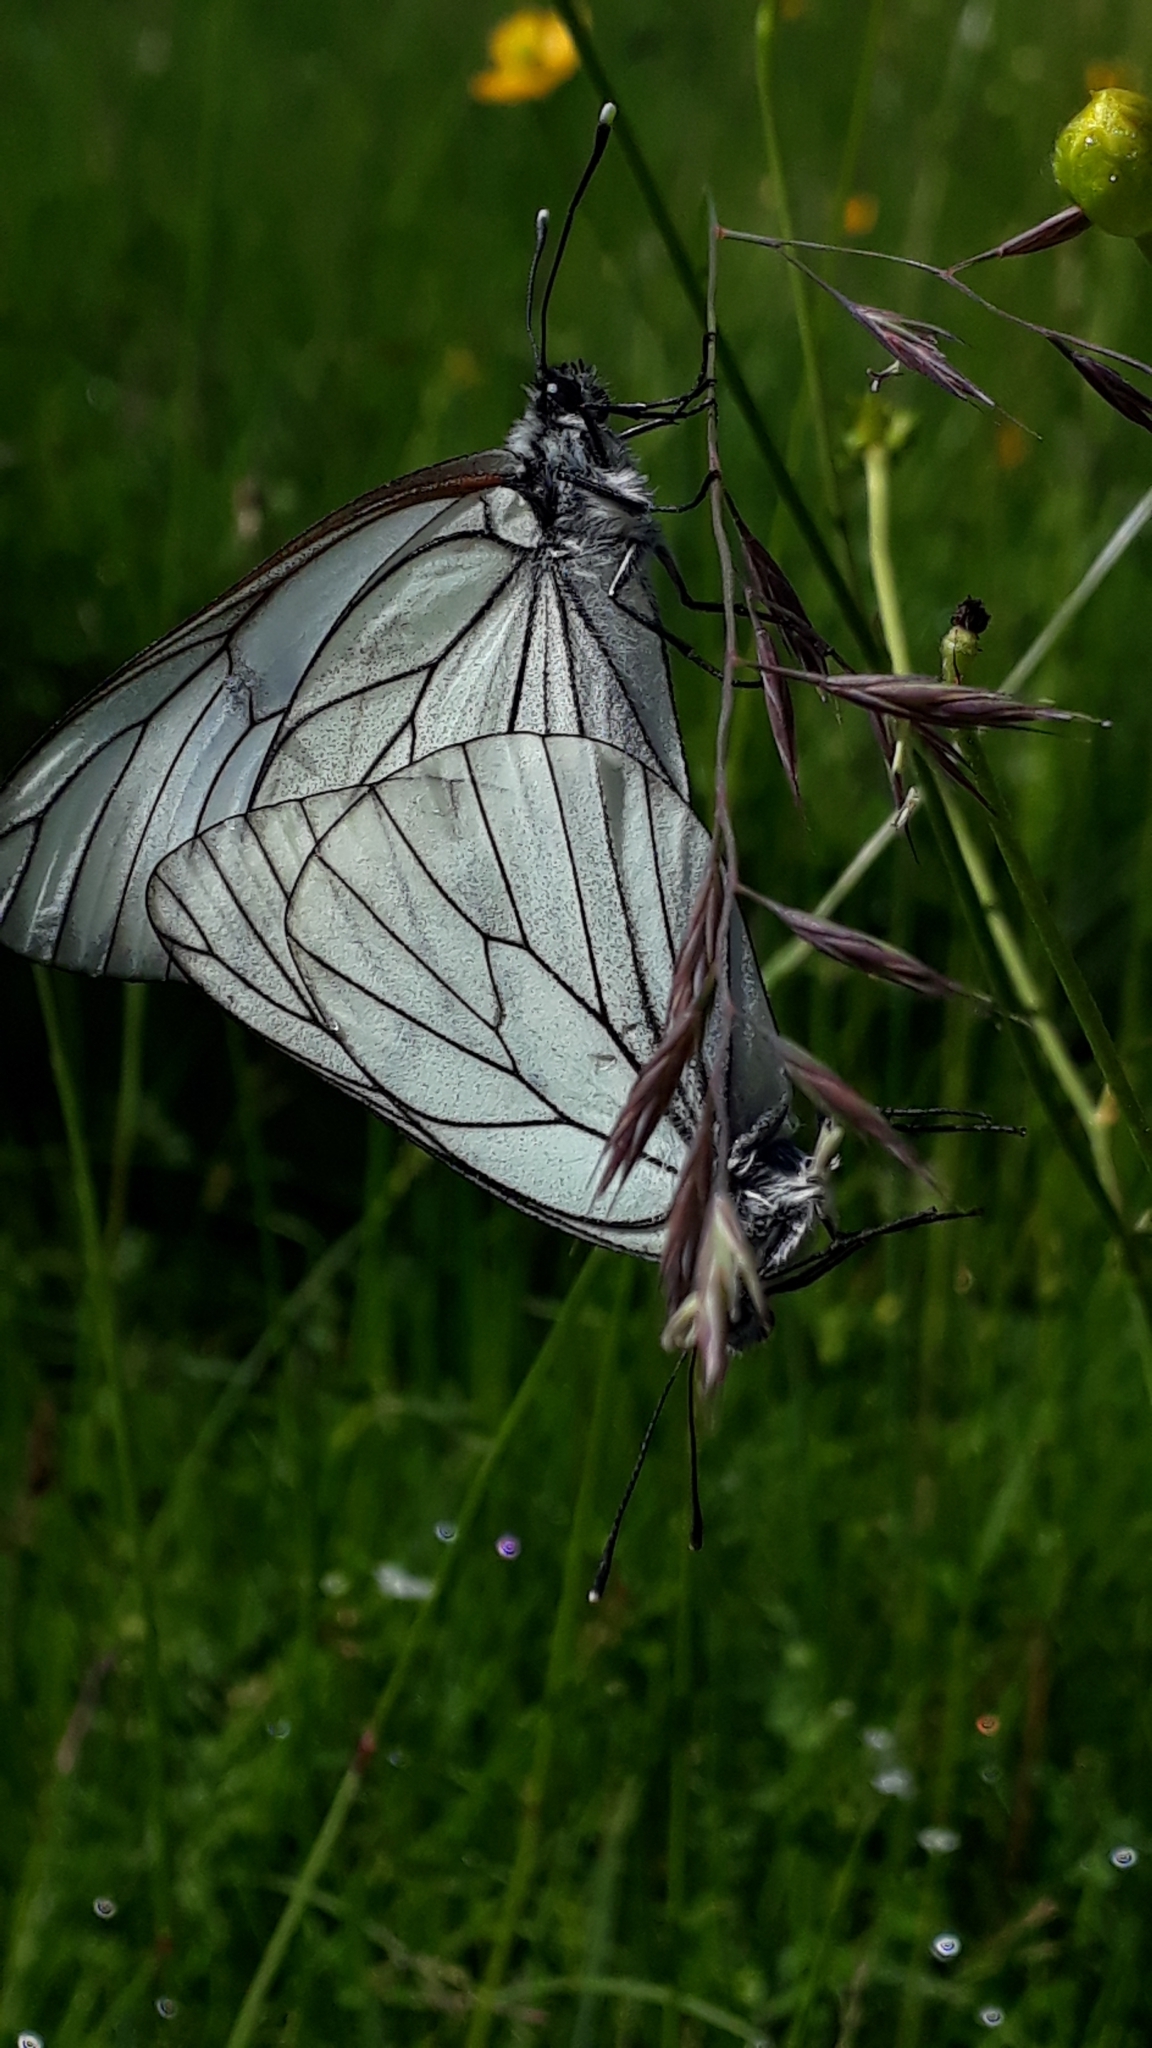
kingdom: Animalia
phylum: Arthropoda
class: Insecta
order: Lepidoptera
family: Pieridae
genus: Aporia
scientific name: Aporia crataegi
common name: Black-veined white
